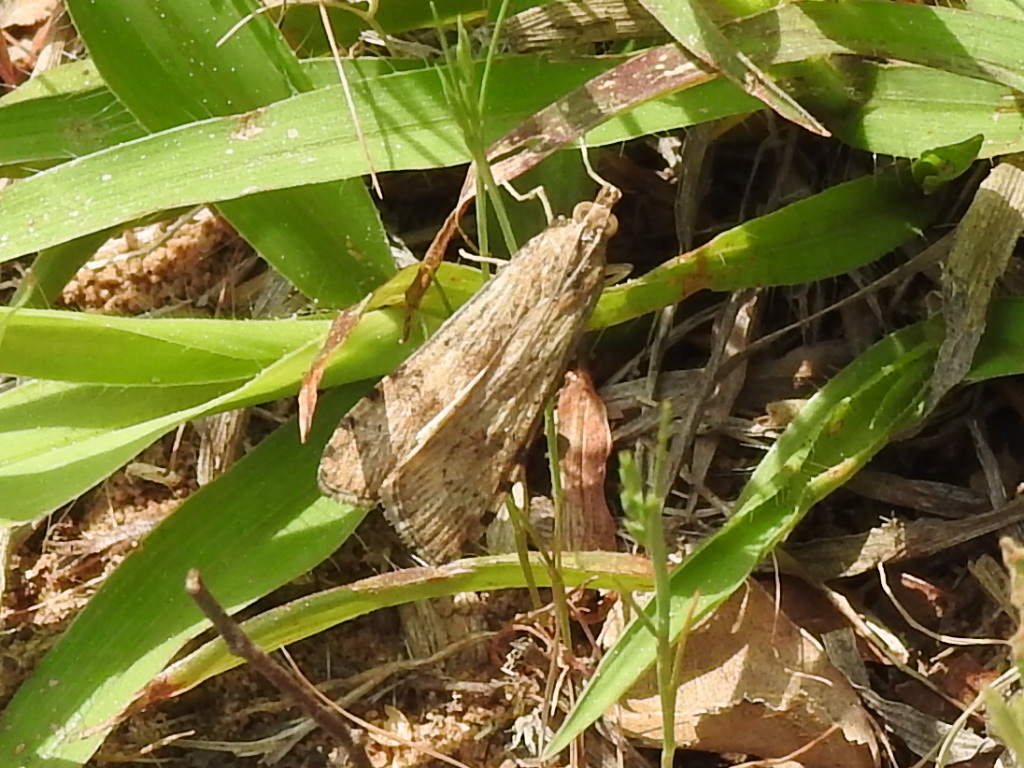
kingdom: Animalia
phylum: Arthropoda
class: Insecta
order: Lepidoptera
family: Crambidae
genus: Nomophila
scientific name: Nomophila nearctica
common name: American rush veneer
